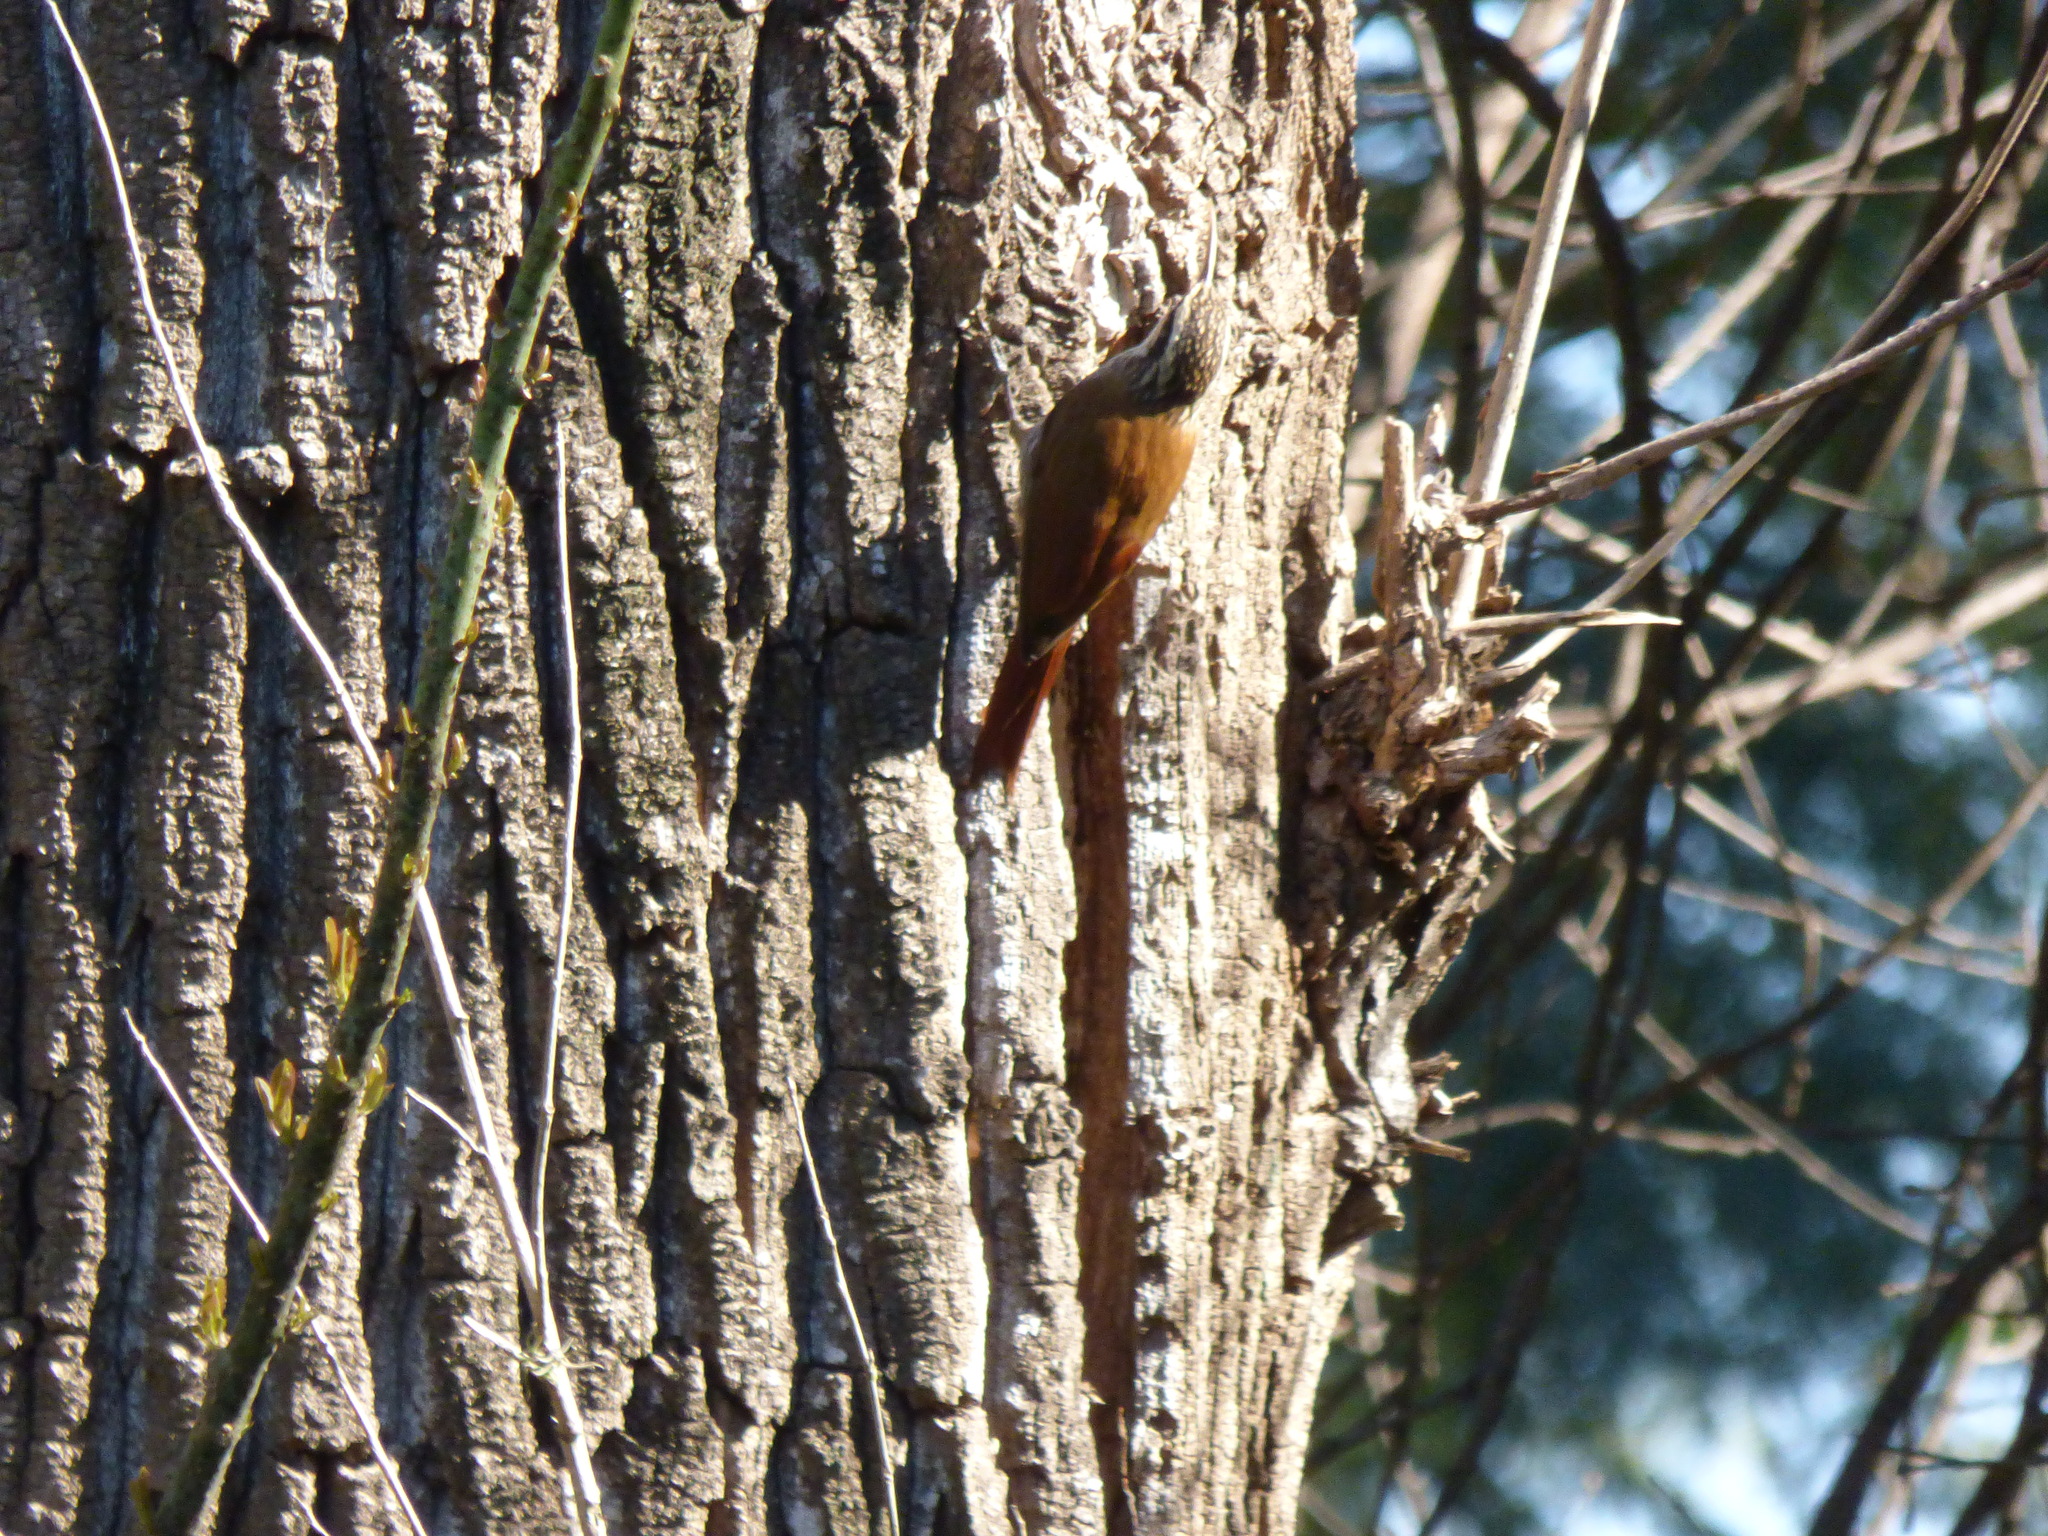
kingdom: Animalia
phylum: Chordata
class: Aves
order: Passeriformes
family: Furnariidae
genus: Lepidocolaptes
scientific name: Lepidocolaptes angustirostris
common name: Narrow-billed woodcreeper
